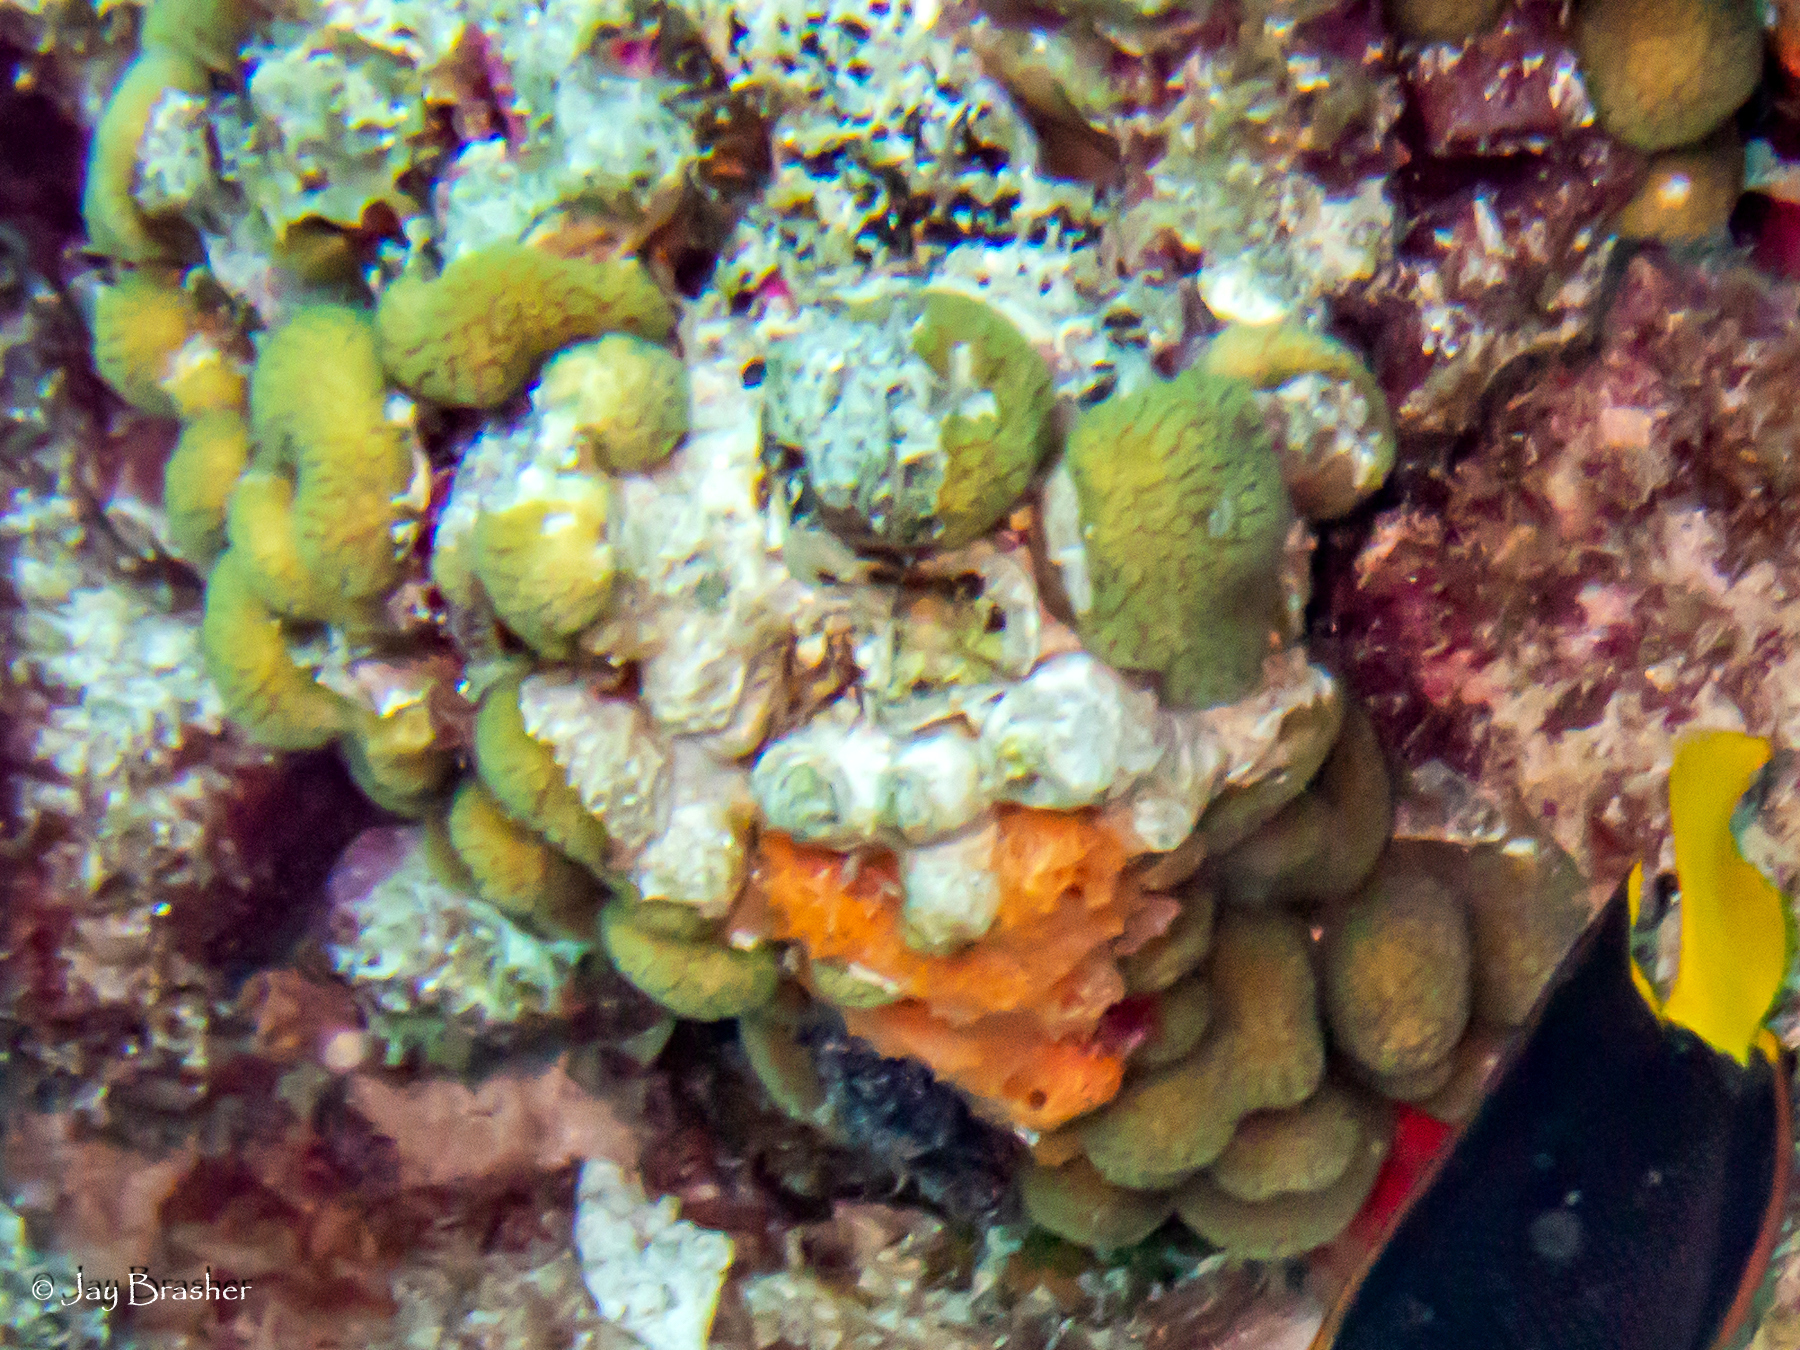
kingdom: Animalia
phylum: Porifera
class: Demospongiae
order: Scopalinida
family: Scopalinidae
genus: Scopalina
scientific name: Scopalina ruetzleri
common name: Orange lumpy encrusting sponge
